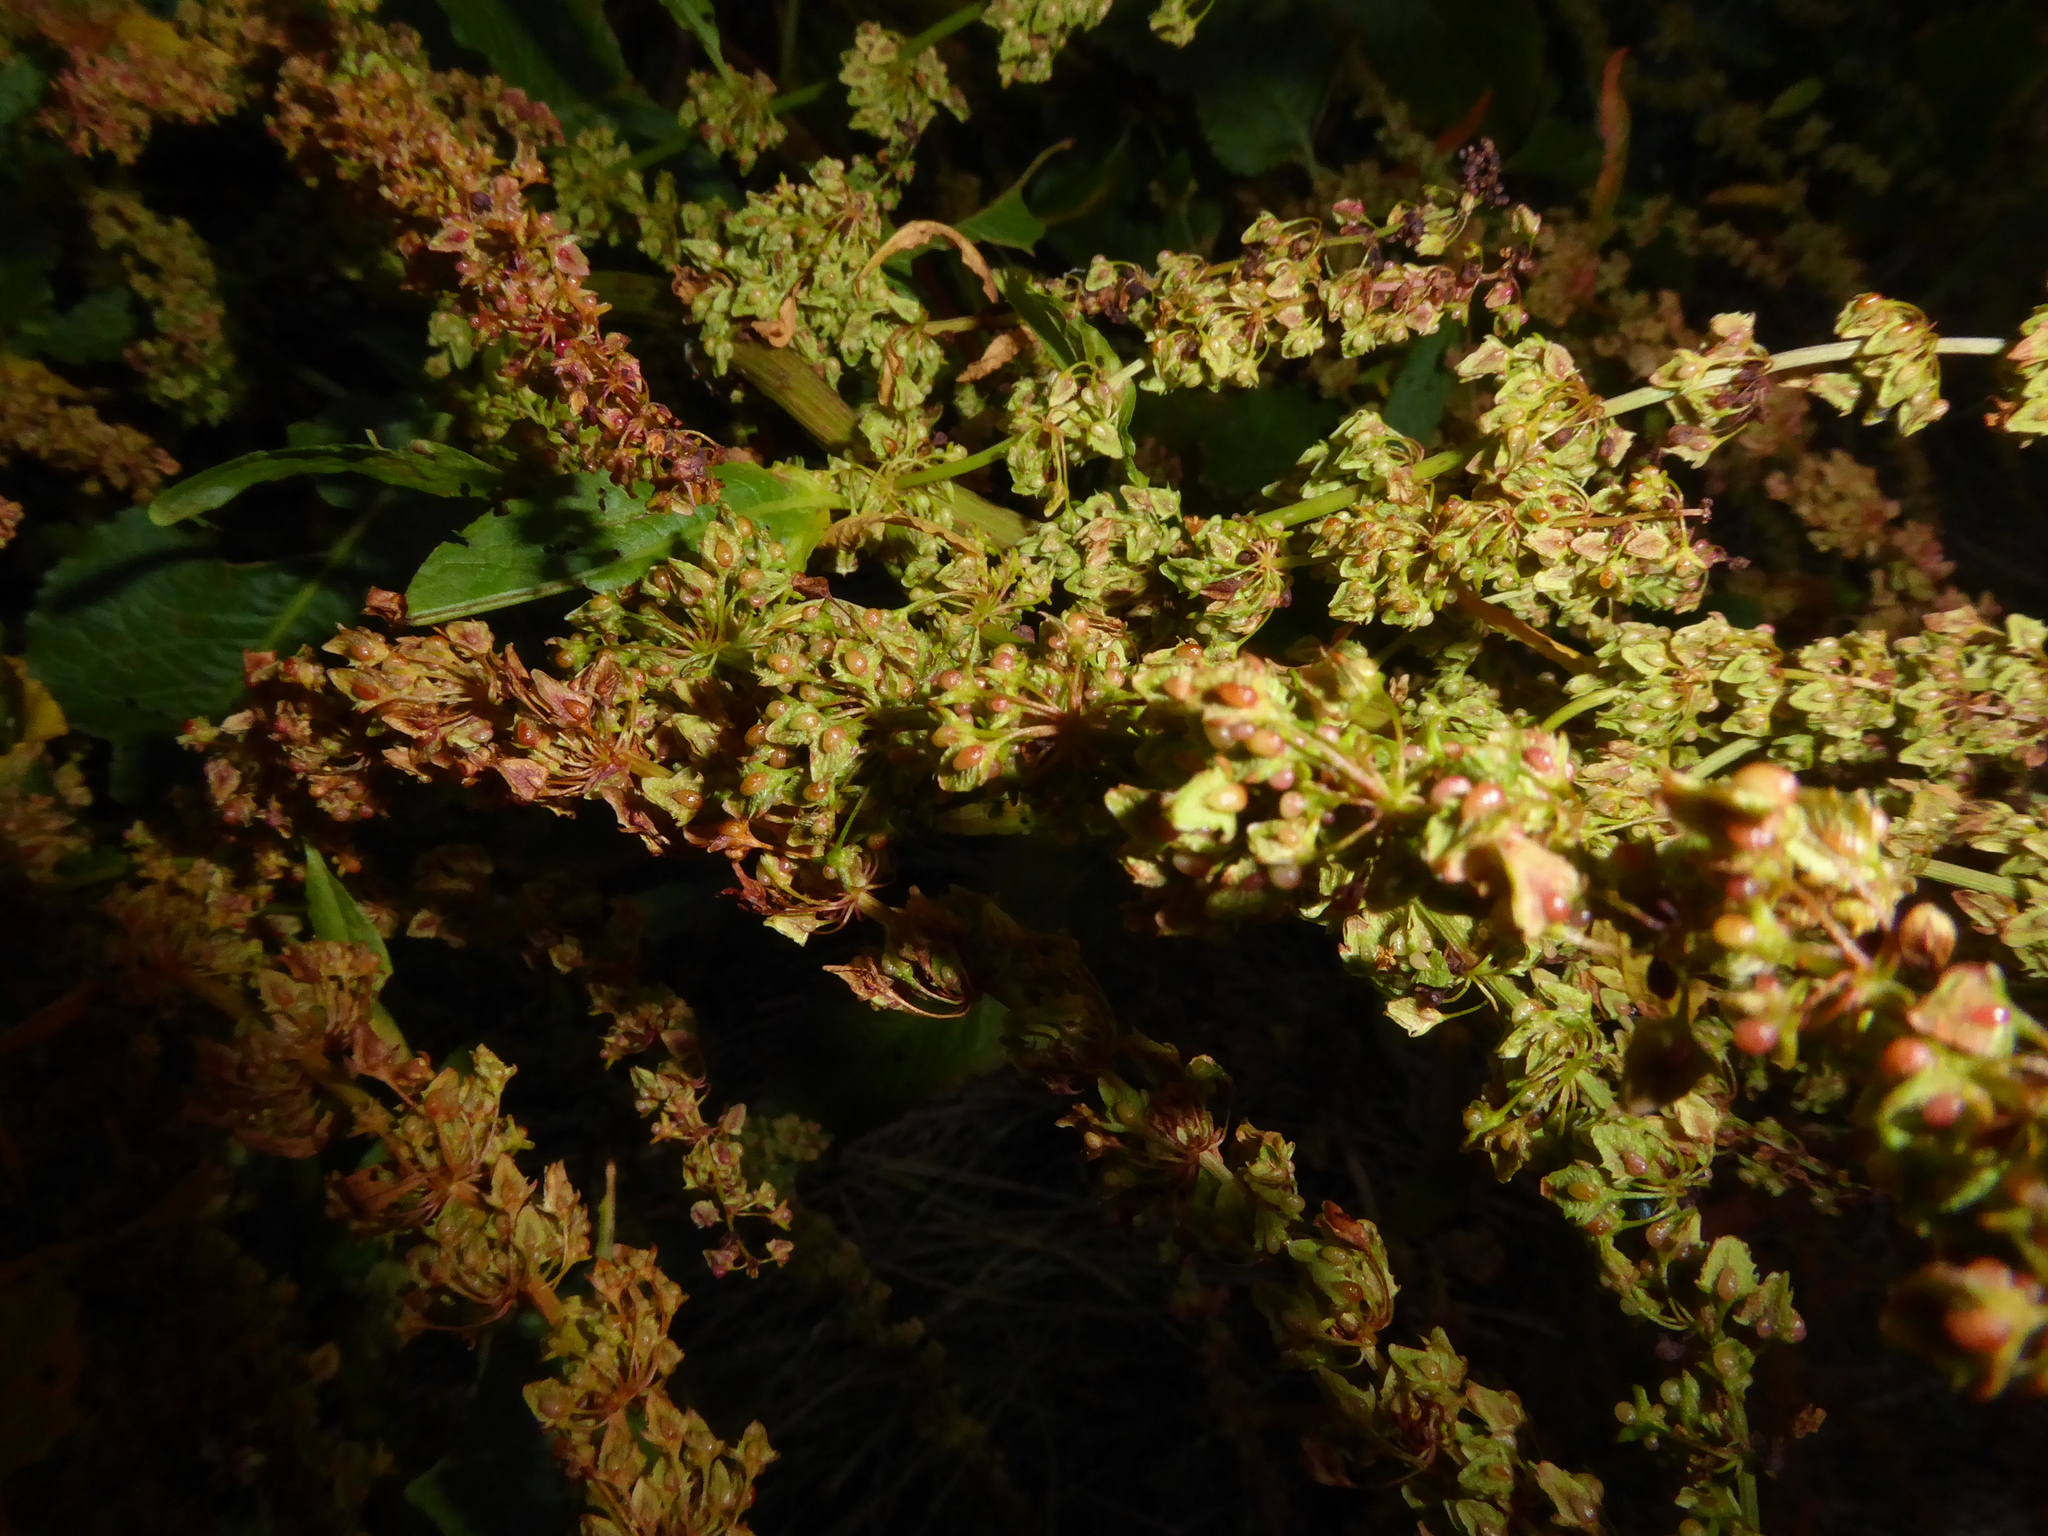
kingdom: Plantae
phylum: Tracheophyta
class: Magnoliopsida
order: Caryophyllales
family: Polygonaceae
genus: Rumex
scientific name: Rumex obtusifolius
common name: Bitter dock
